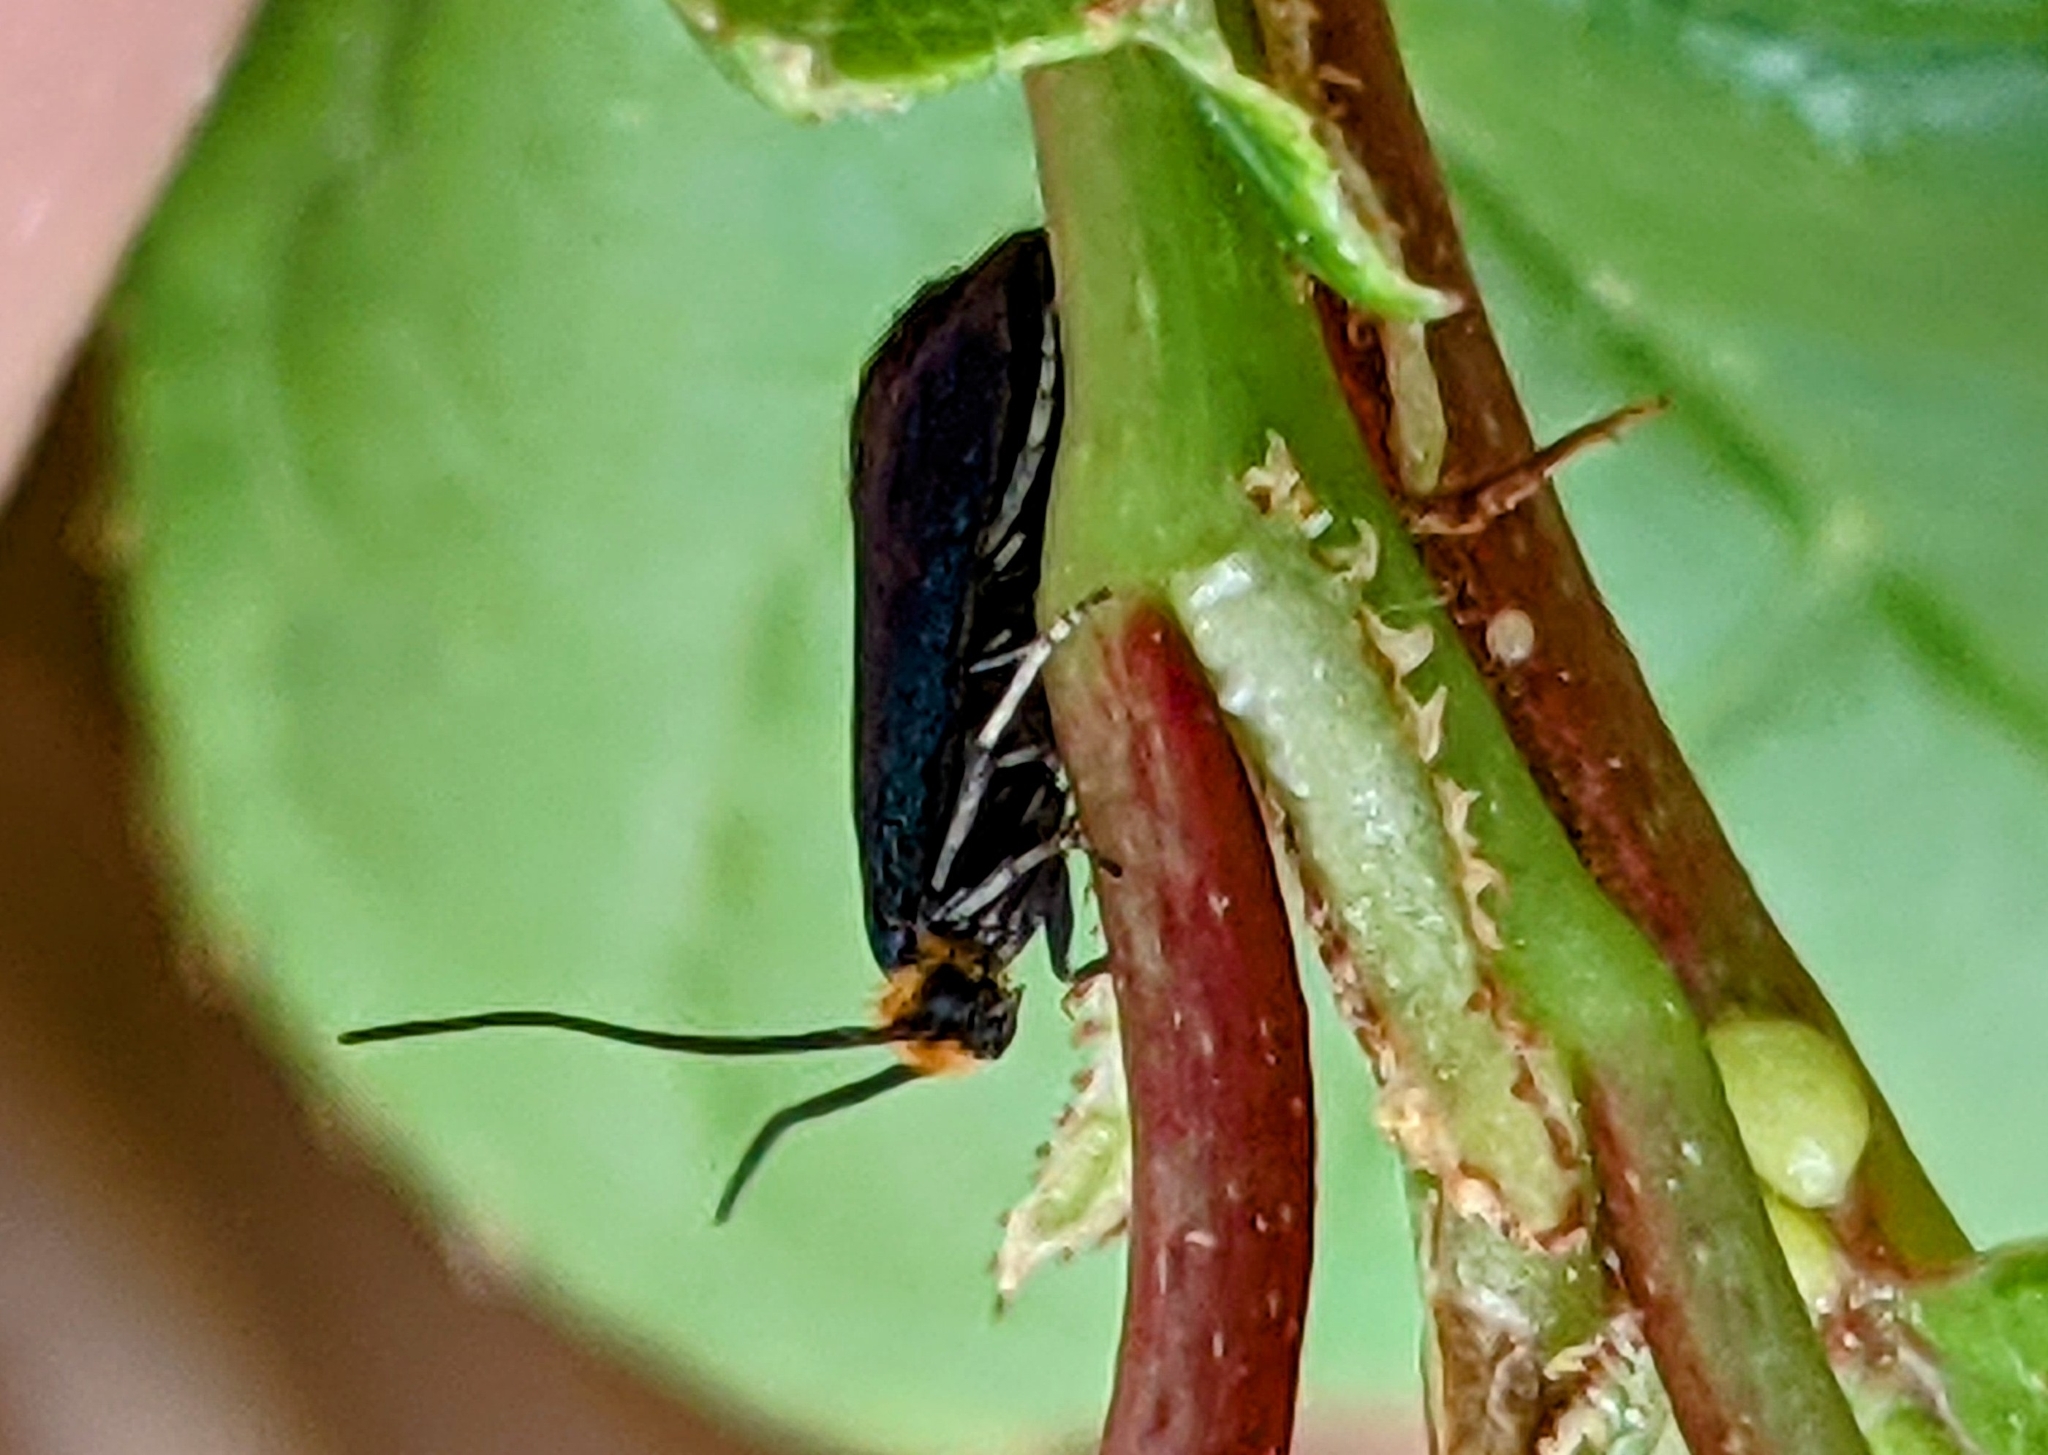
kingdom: Animalia
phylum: Arthropoda
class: Insecta
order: Lepidoptera
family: Incurvariidae
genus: Paraclemensia
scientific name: Paraclemensia acerifoliella
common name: Maple leafcutter
